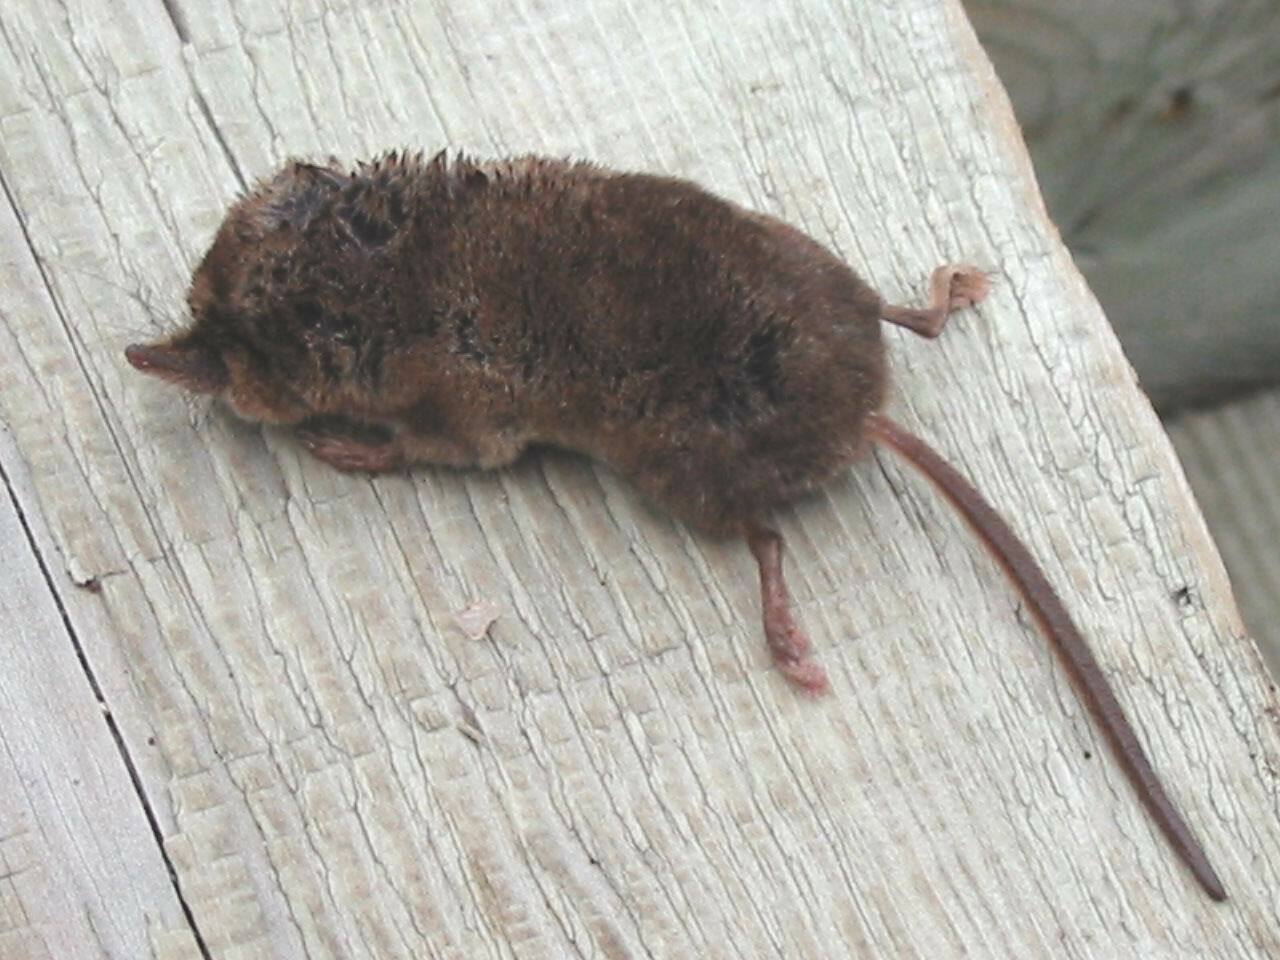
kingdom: Animalia
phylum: Chordata
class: Mammalia
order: Soricomorpha
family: Soricidae
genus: Sorex
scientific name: Sorex cinereus
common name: Cinereus shrew
